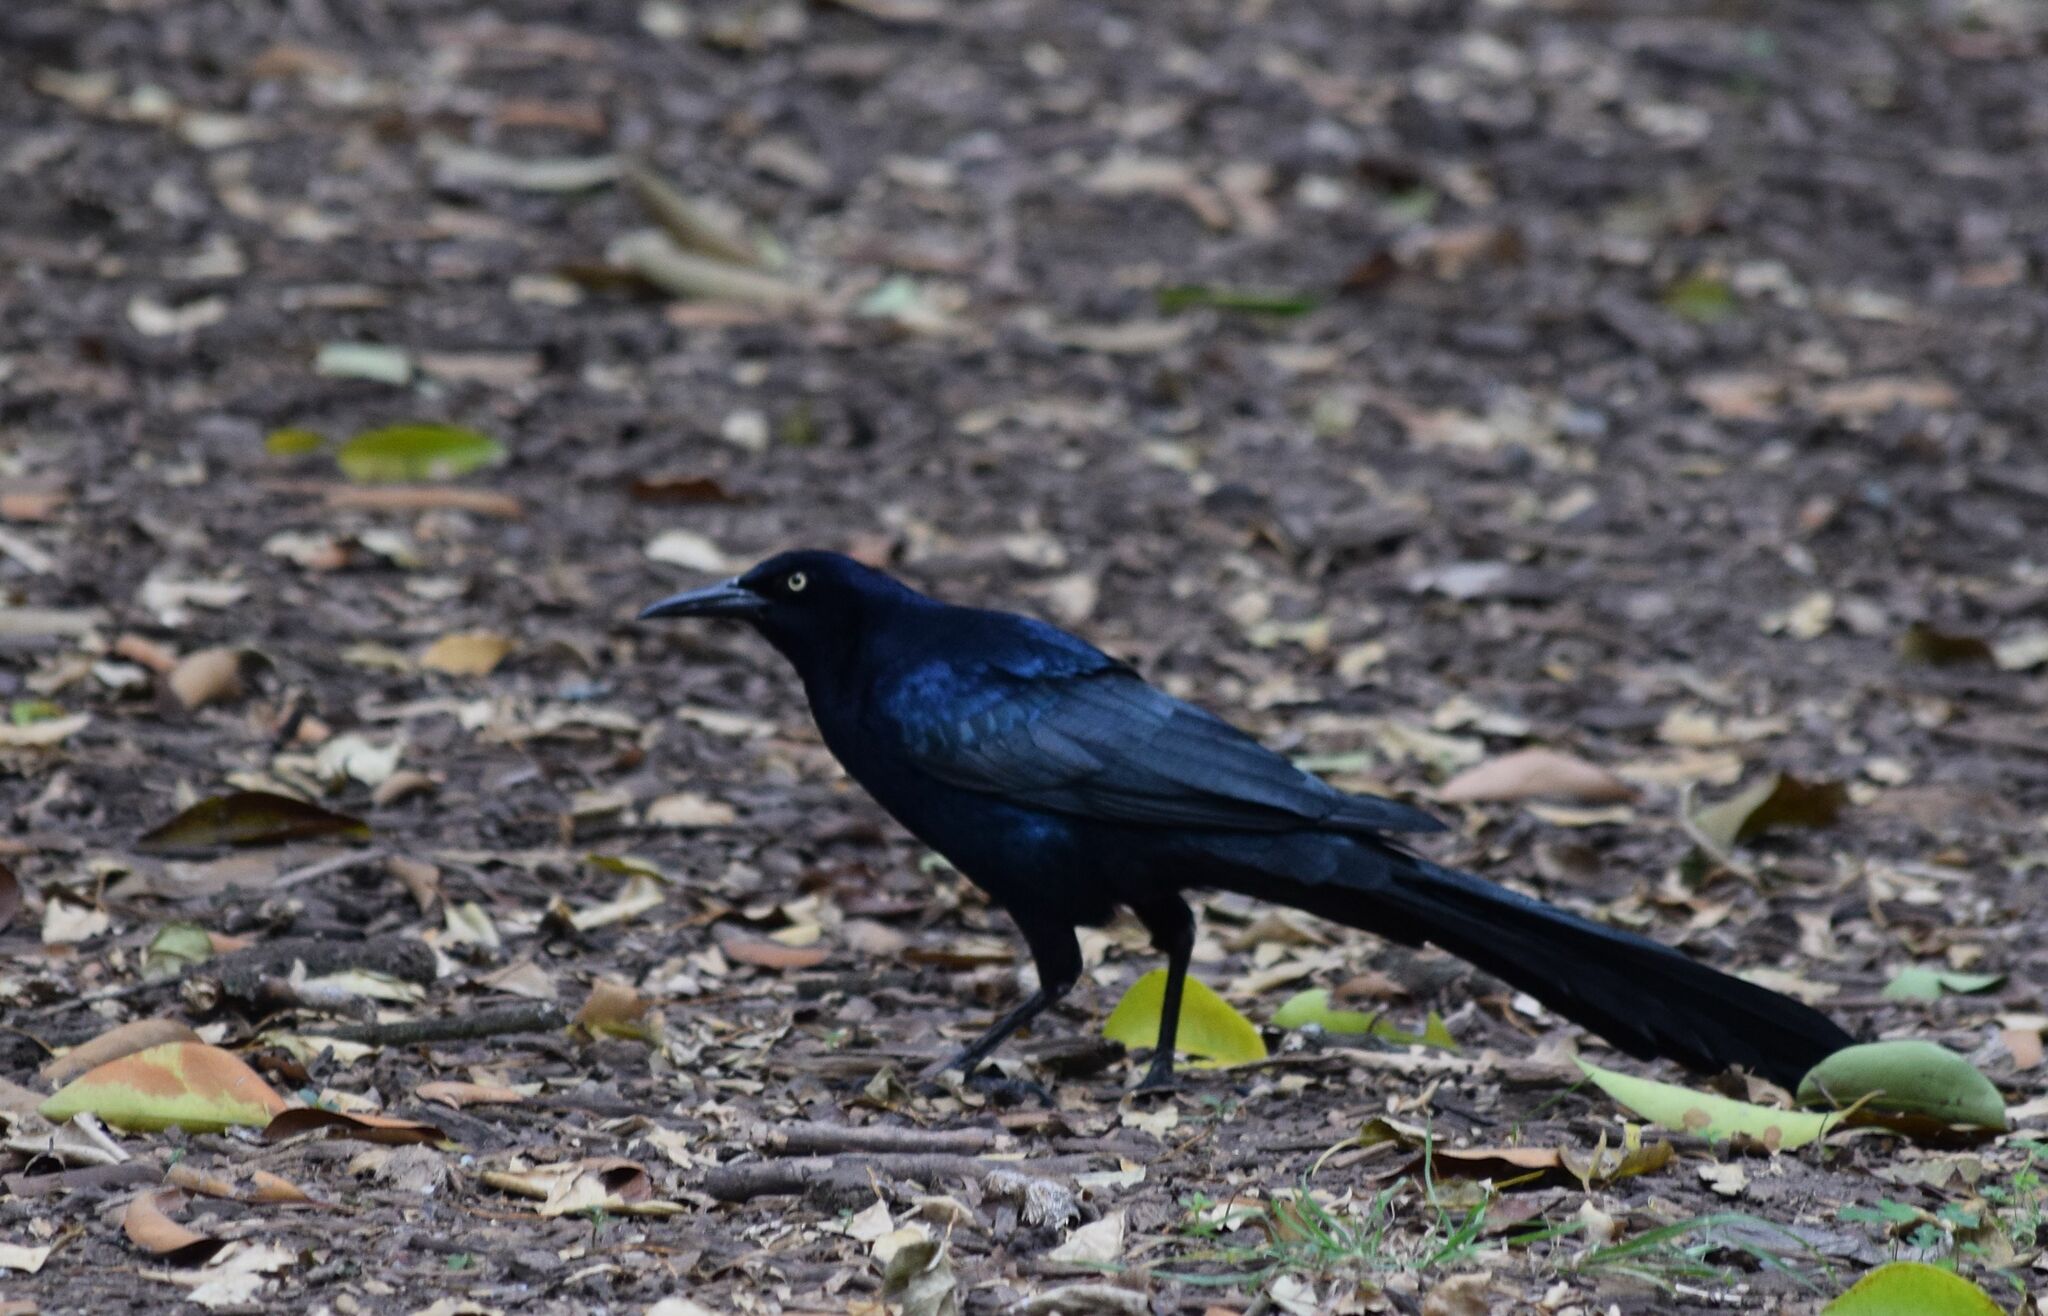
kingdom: Animalia
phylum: Chordata
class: Aves
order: Passeriformes
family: Icteridae
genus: Quiscalus
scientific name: Quiscalus mexicanus
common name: Great-tailed grackle
